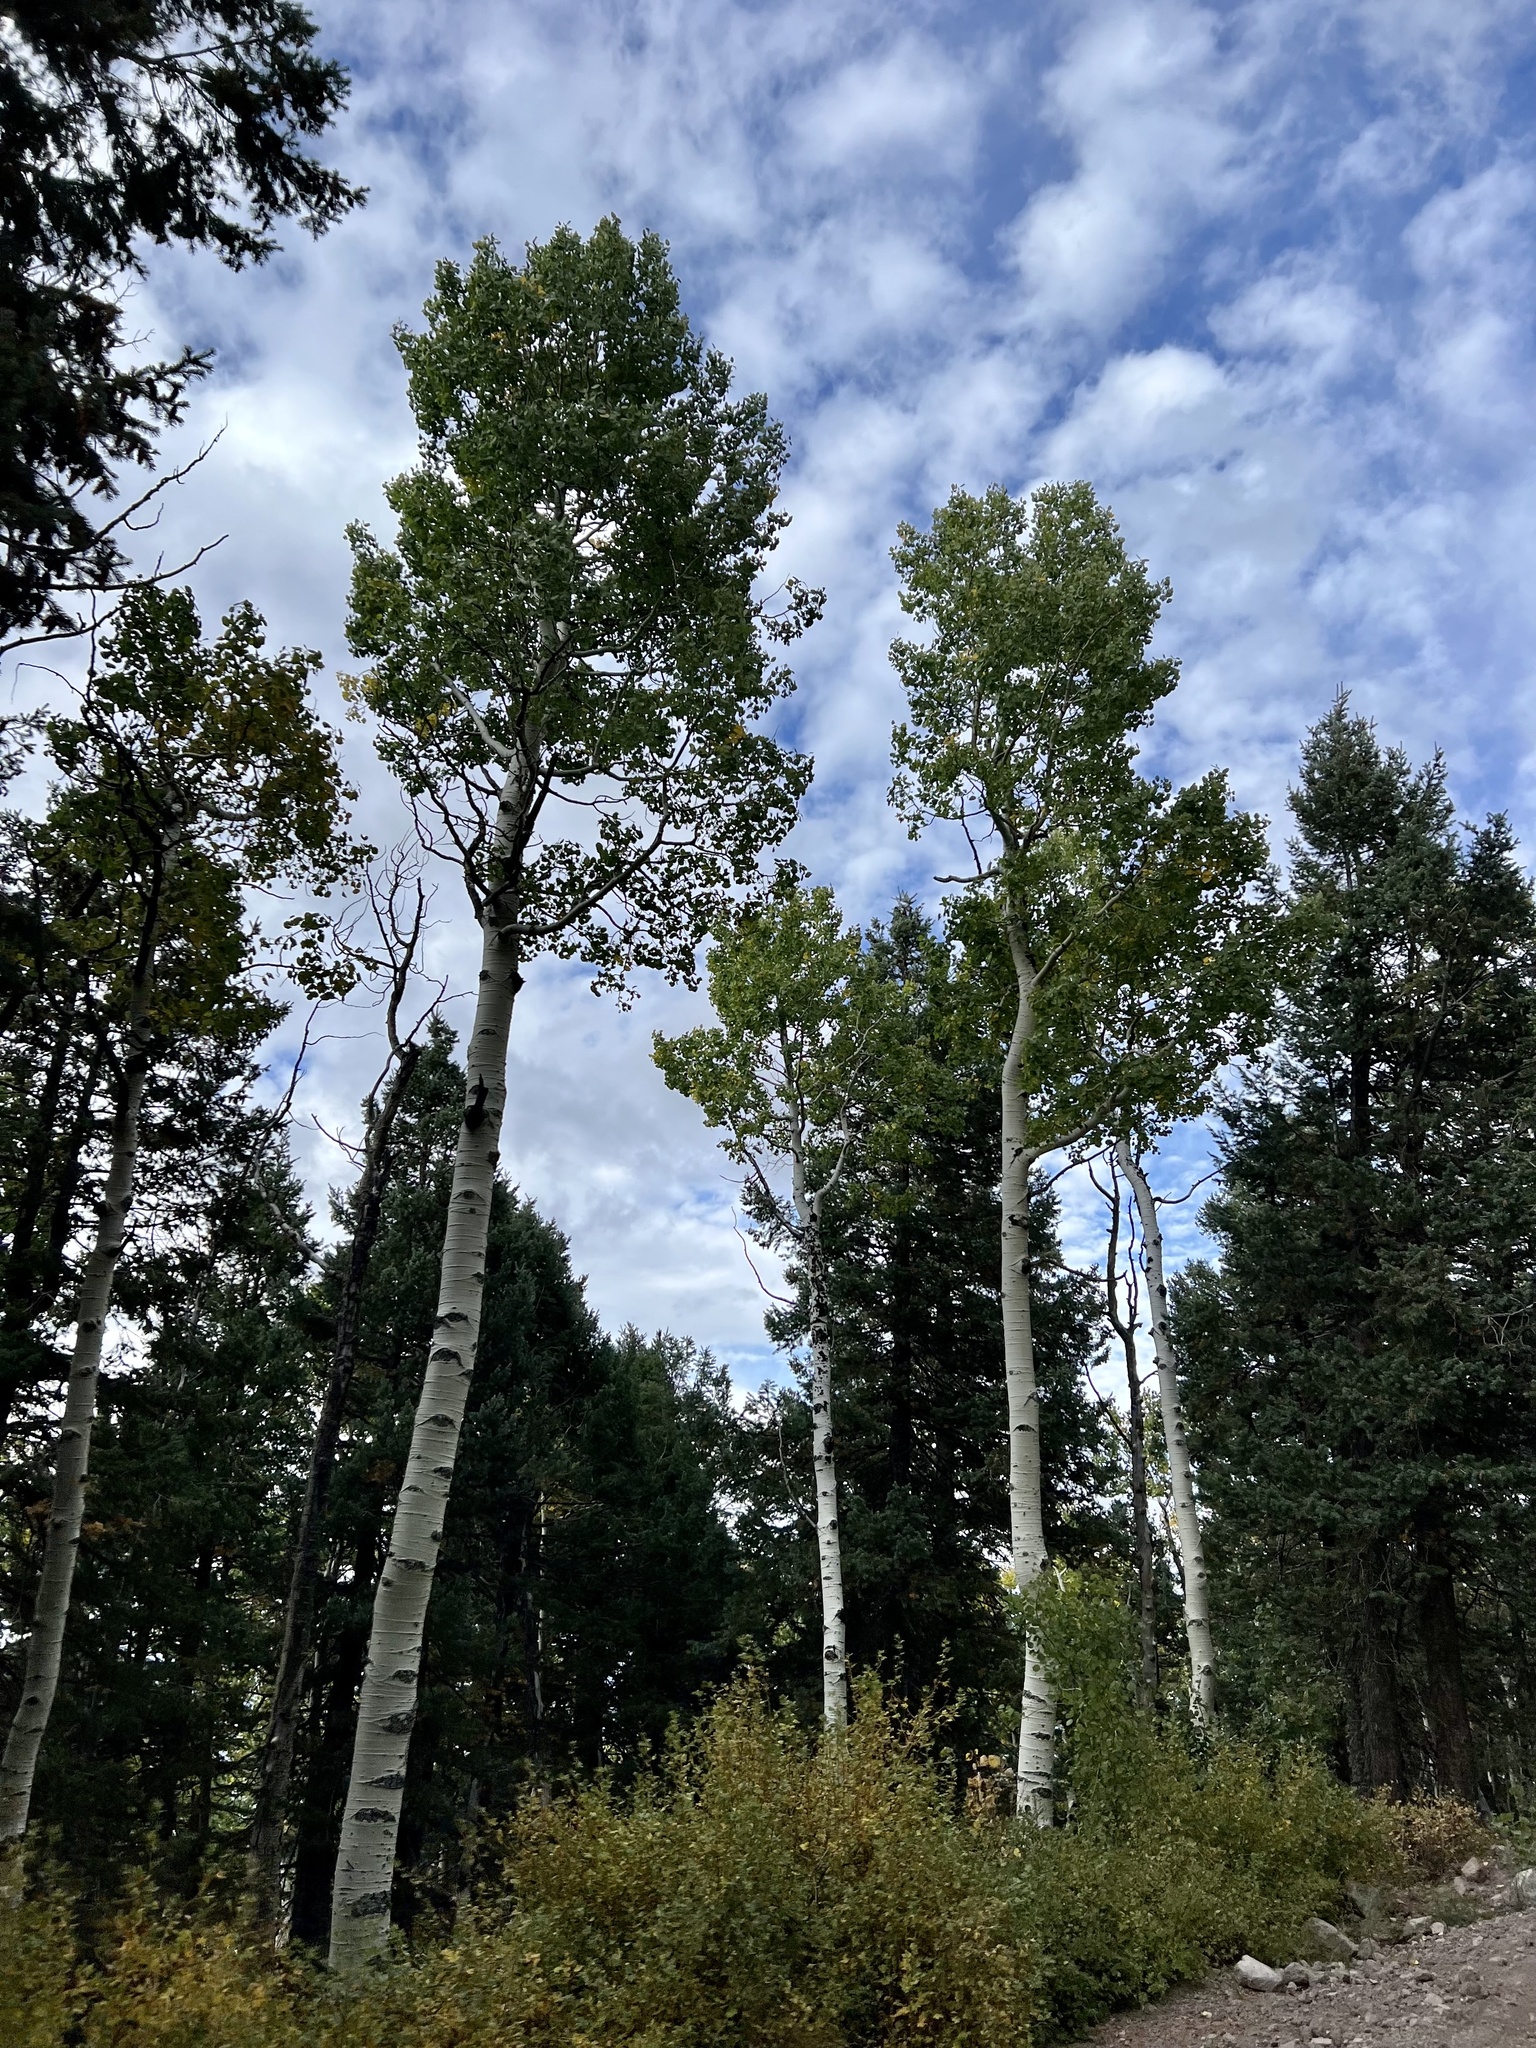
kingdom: Plantae
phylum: Tracheophyta
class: Magnoliopsida
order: Malpighiales
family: Salicaceae
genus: Populus
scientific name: Populus tremuloides
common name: Quaking aspen
